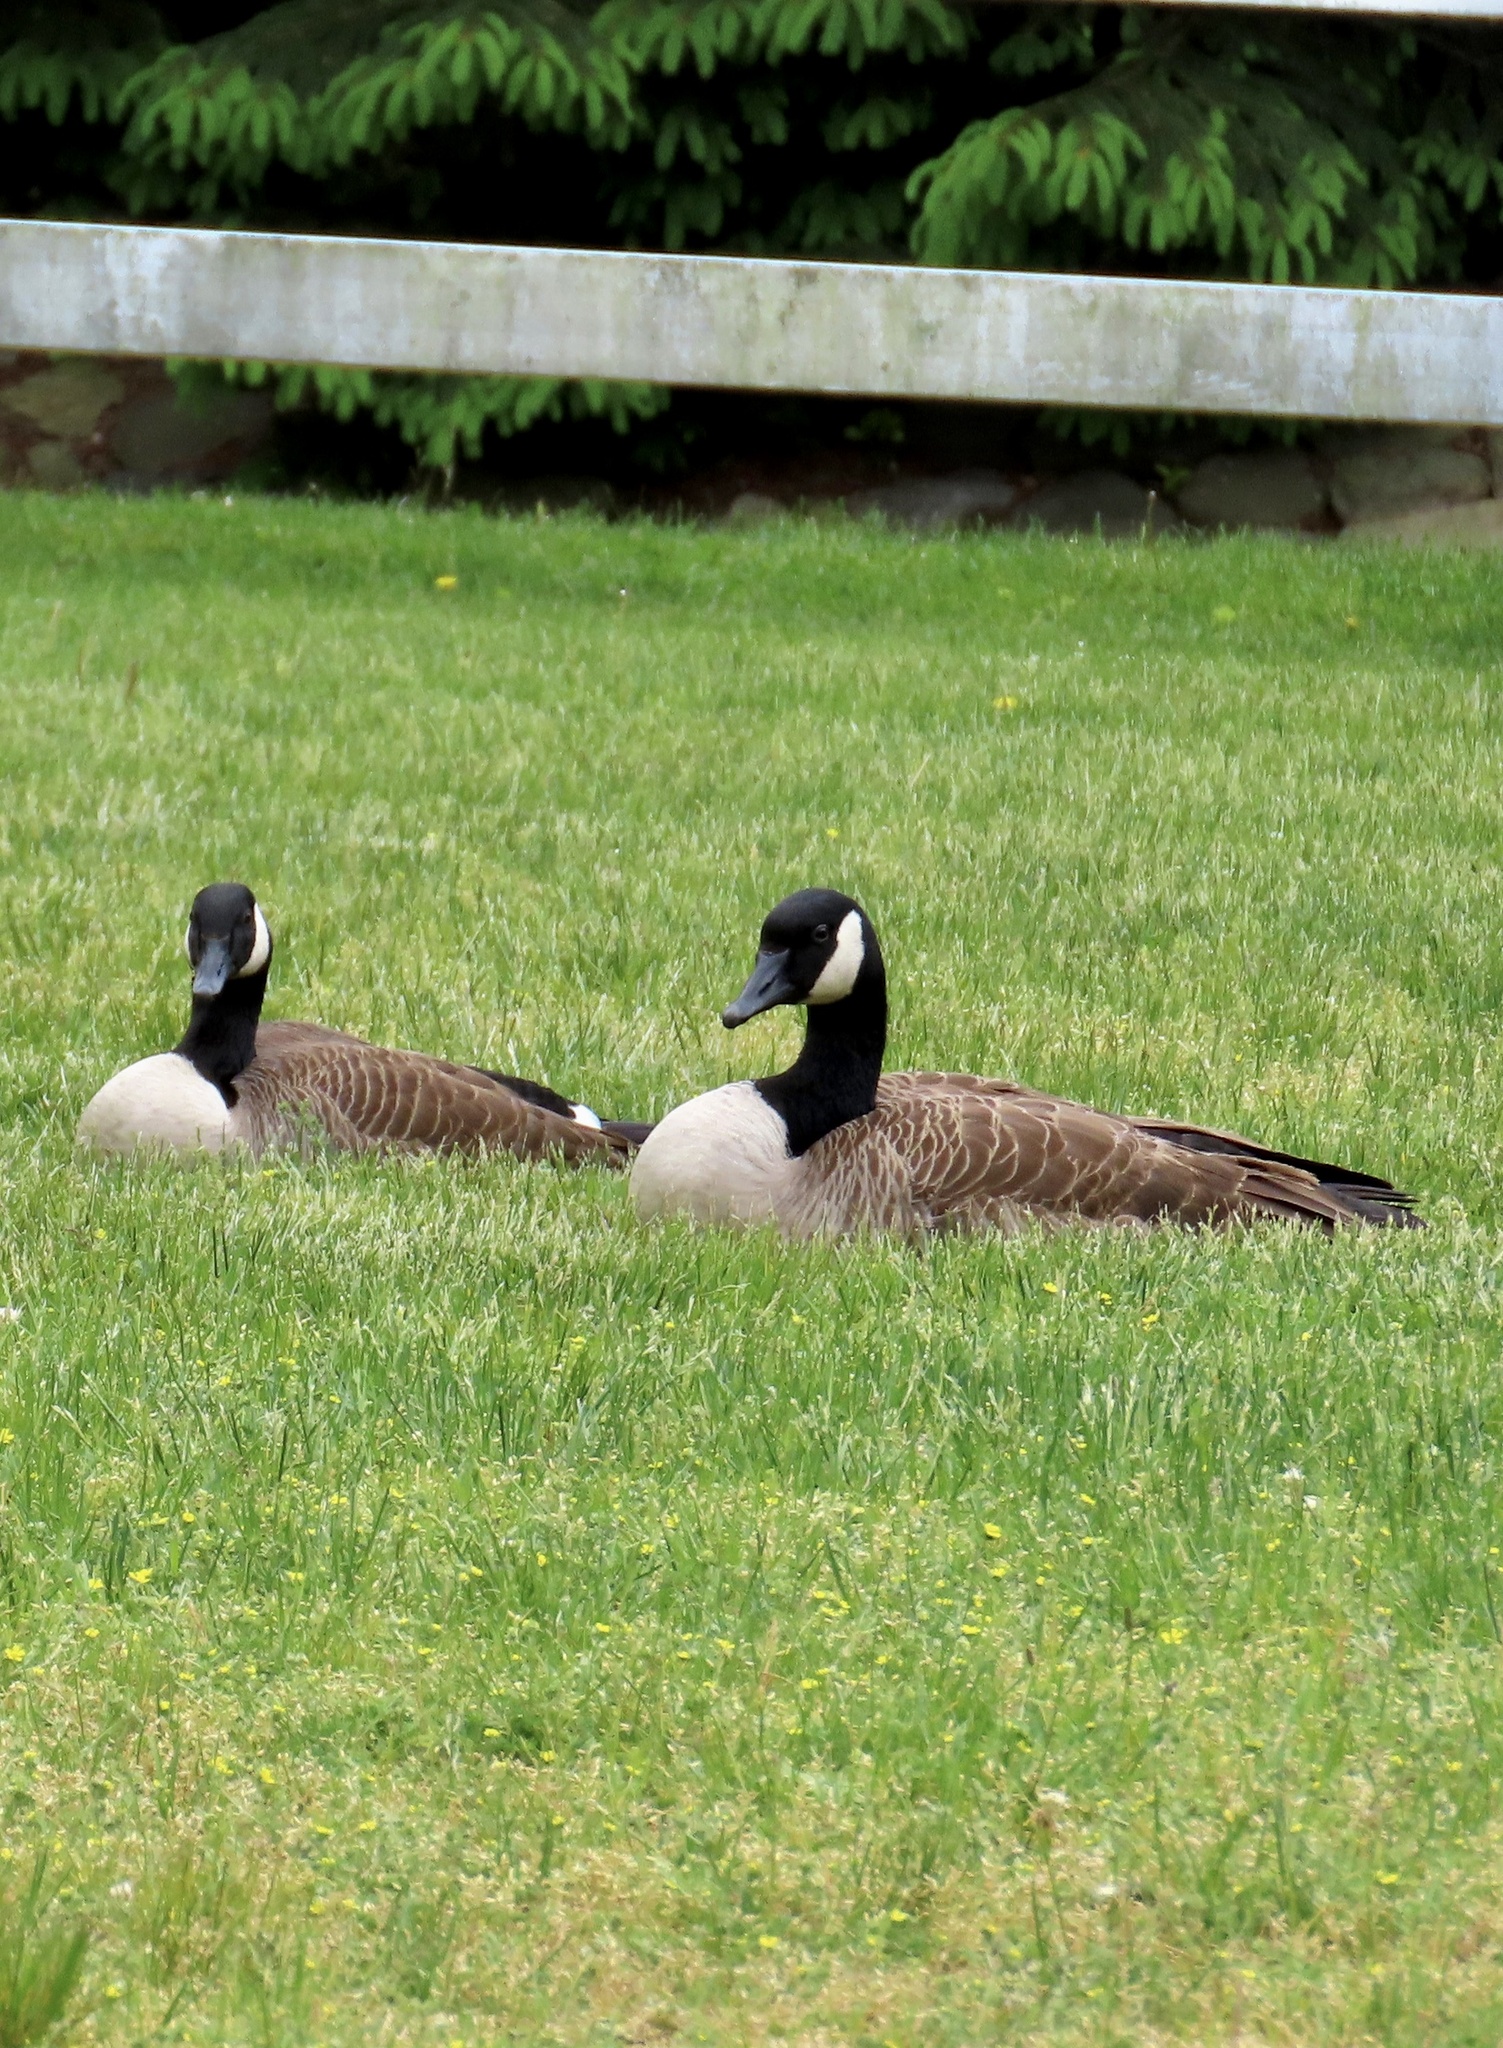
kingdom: Animalia
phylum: Chordata
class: Aves
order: Anseriformes
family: Anatidae
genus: Branta
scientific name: Branta canadensis
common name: Canada goose
